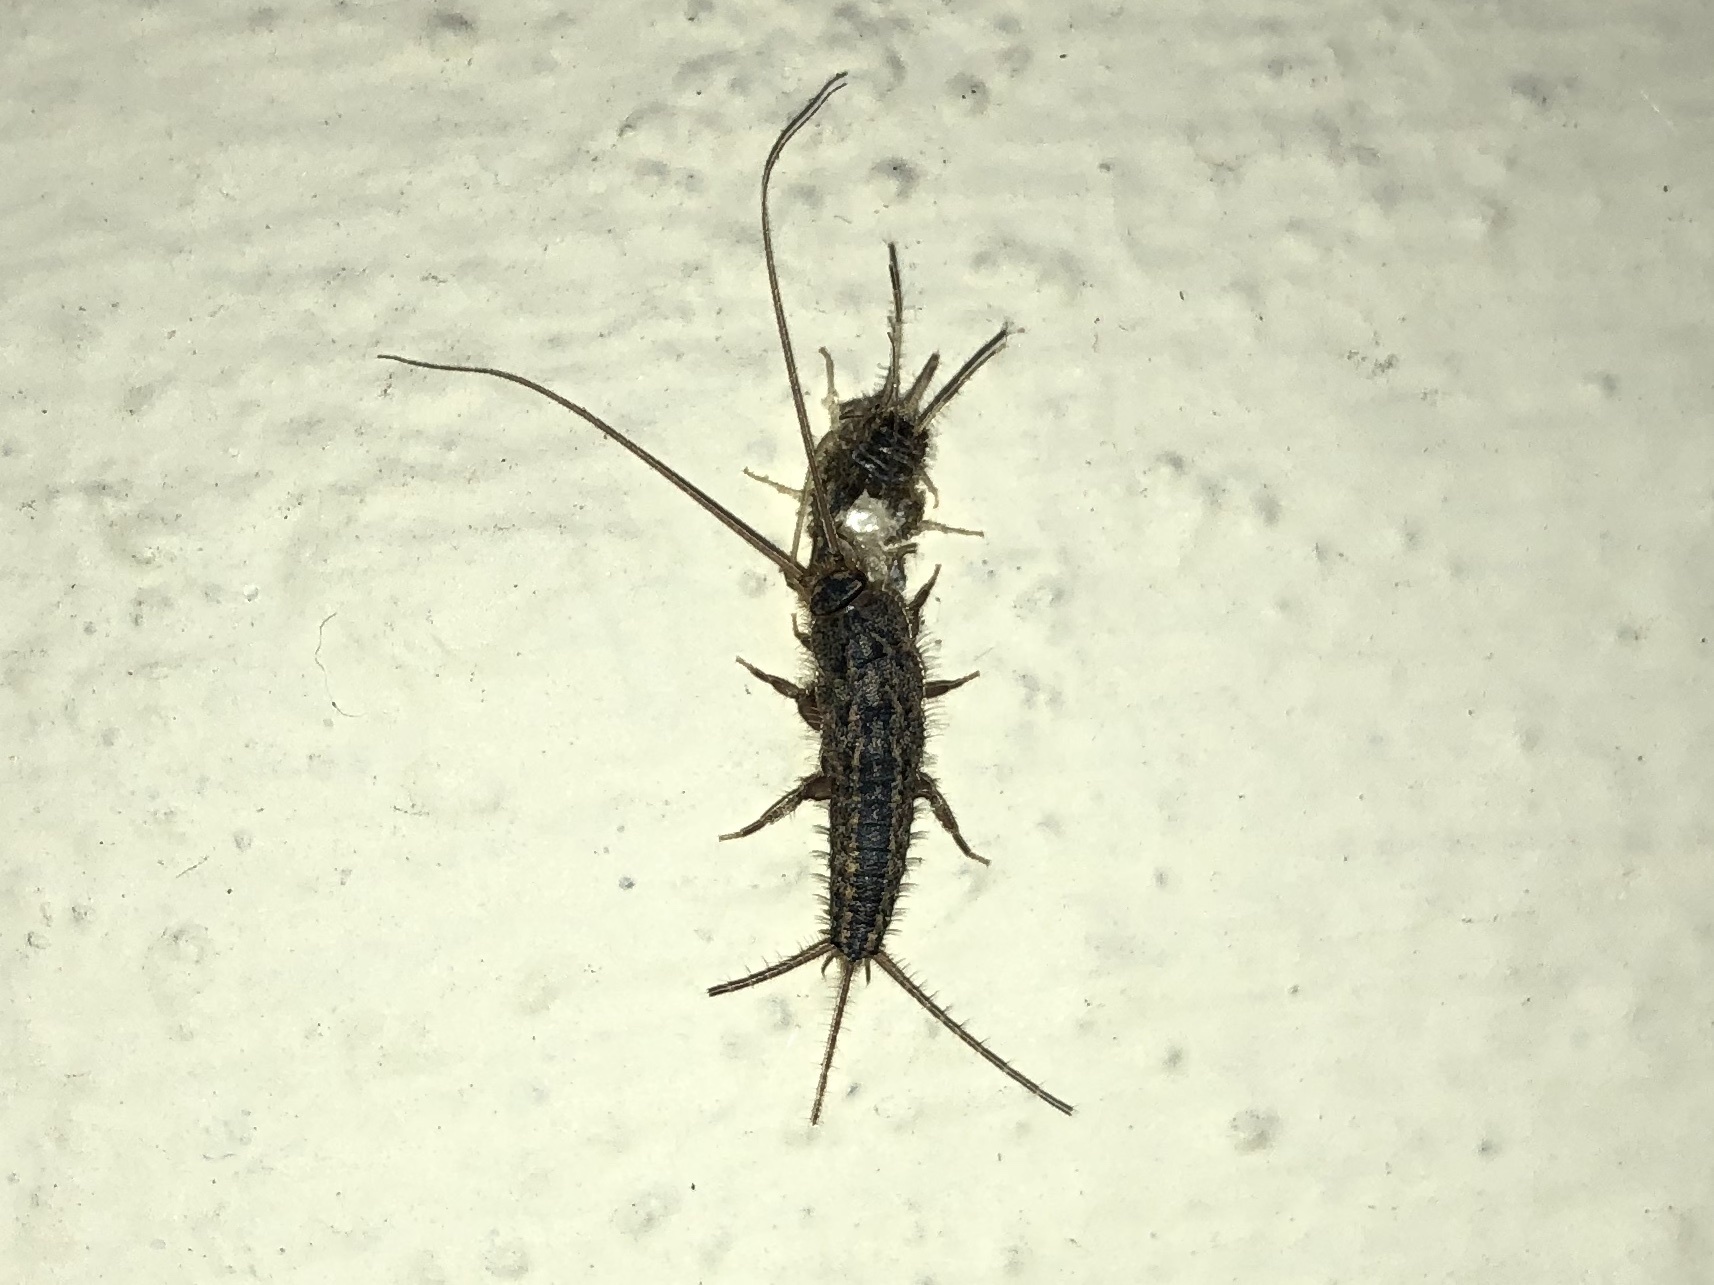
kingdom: Animalia
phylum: Arthropoda
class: Insecta
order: Zygentoma
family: Lepismatidae
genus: Ctenolepisma
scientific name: Ctenolepisma lineata
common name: Four-lined silverfish
